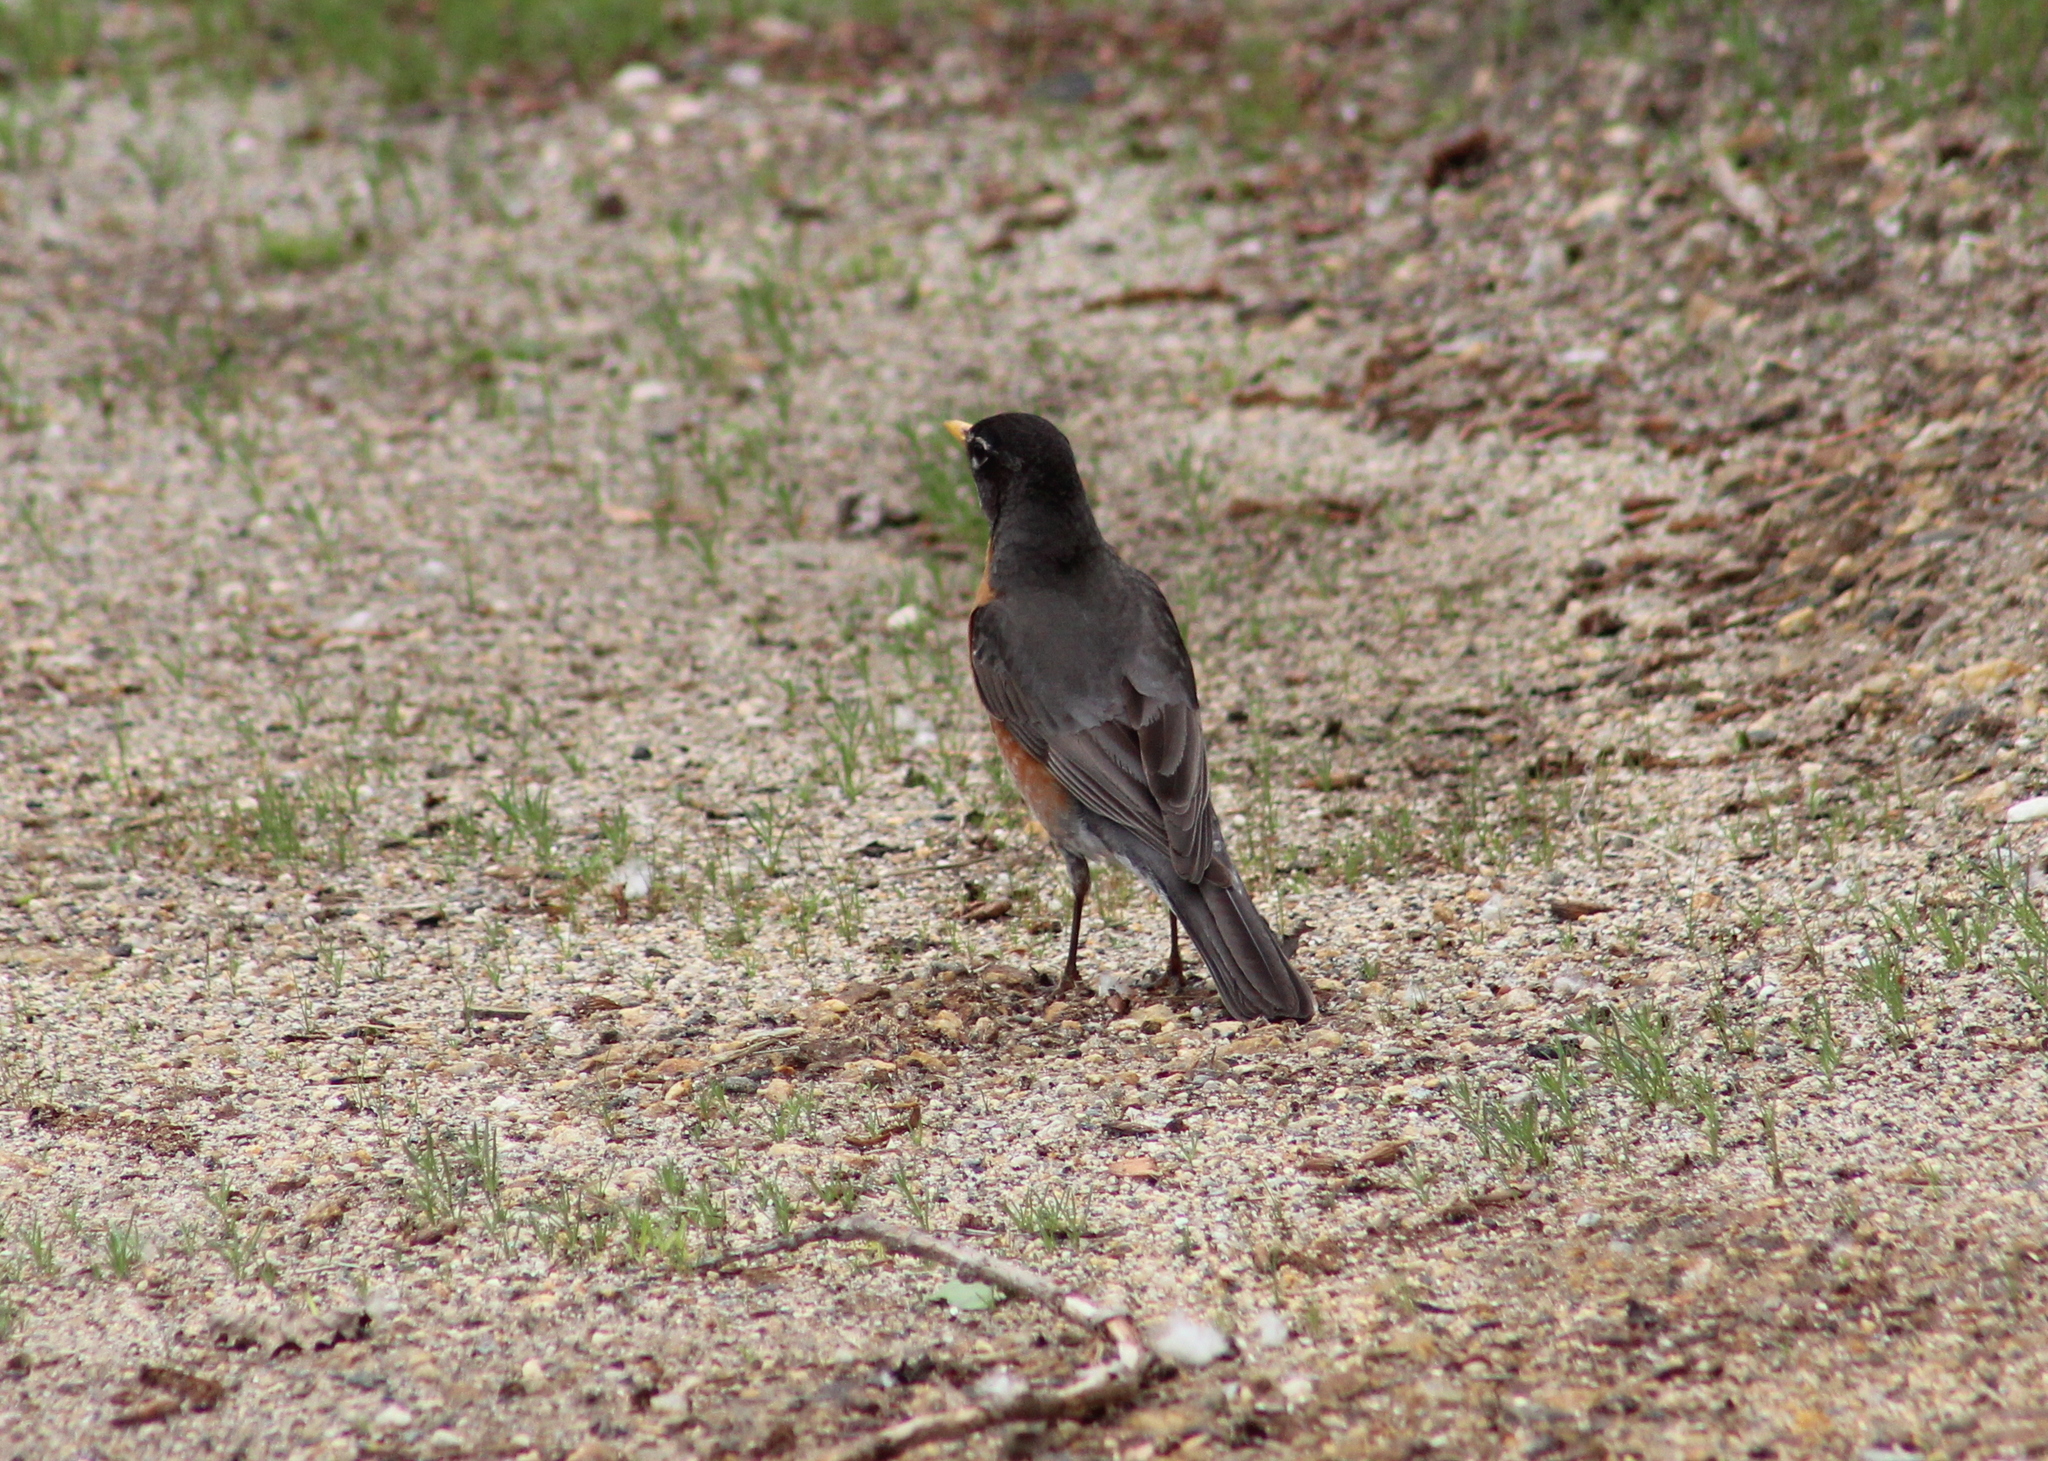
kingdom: Animalia
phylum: Chordata
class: Aves
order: Passeriformes
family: Turdidae
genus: Turdus
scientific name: Turdus migratorius
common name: American robin
